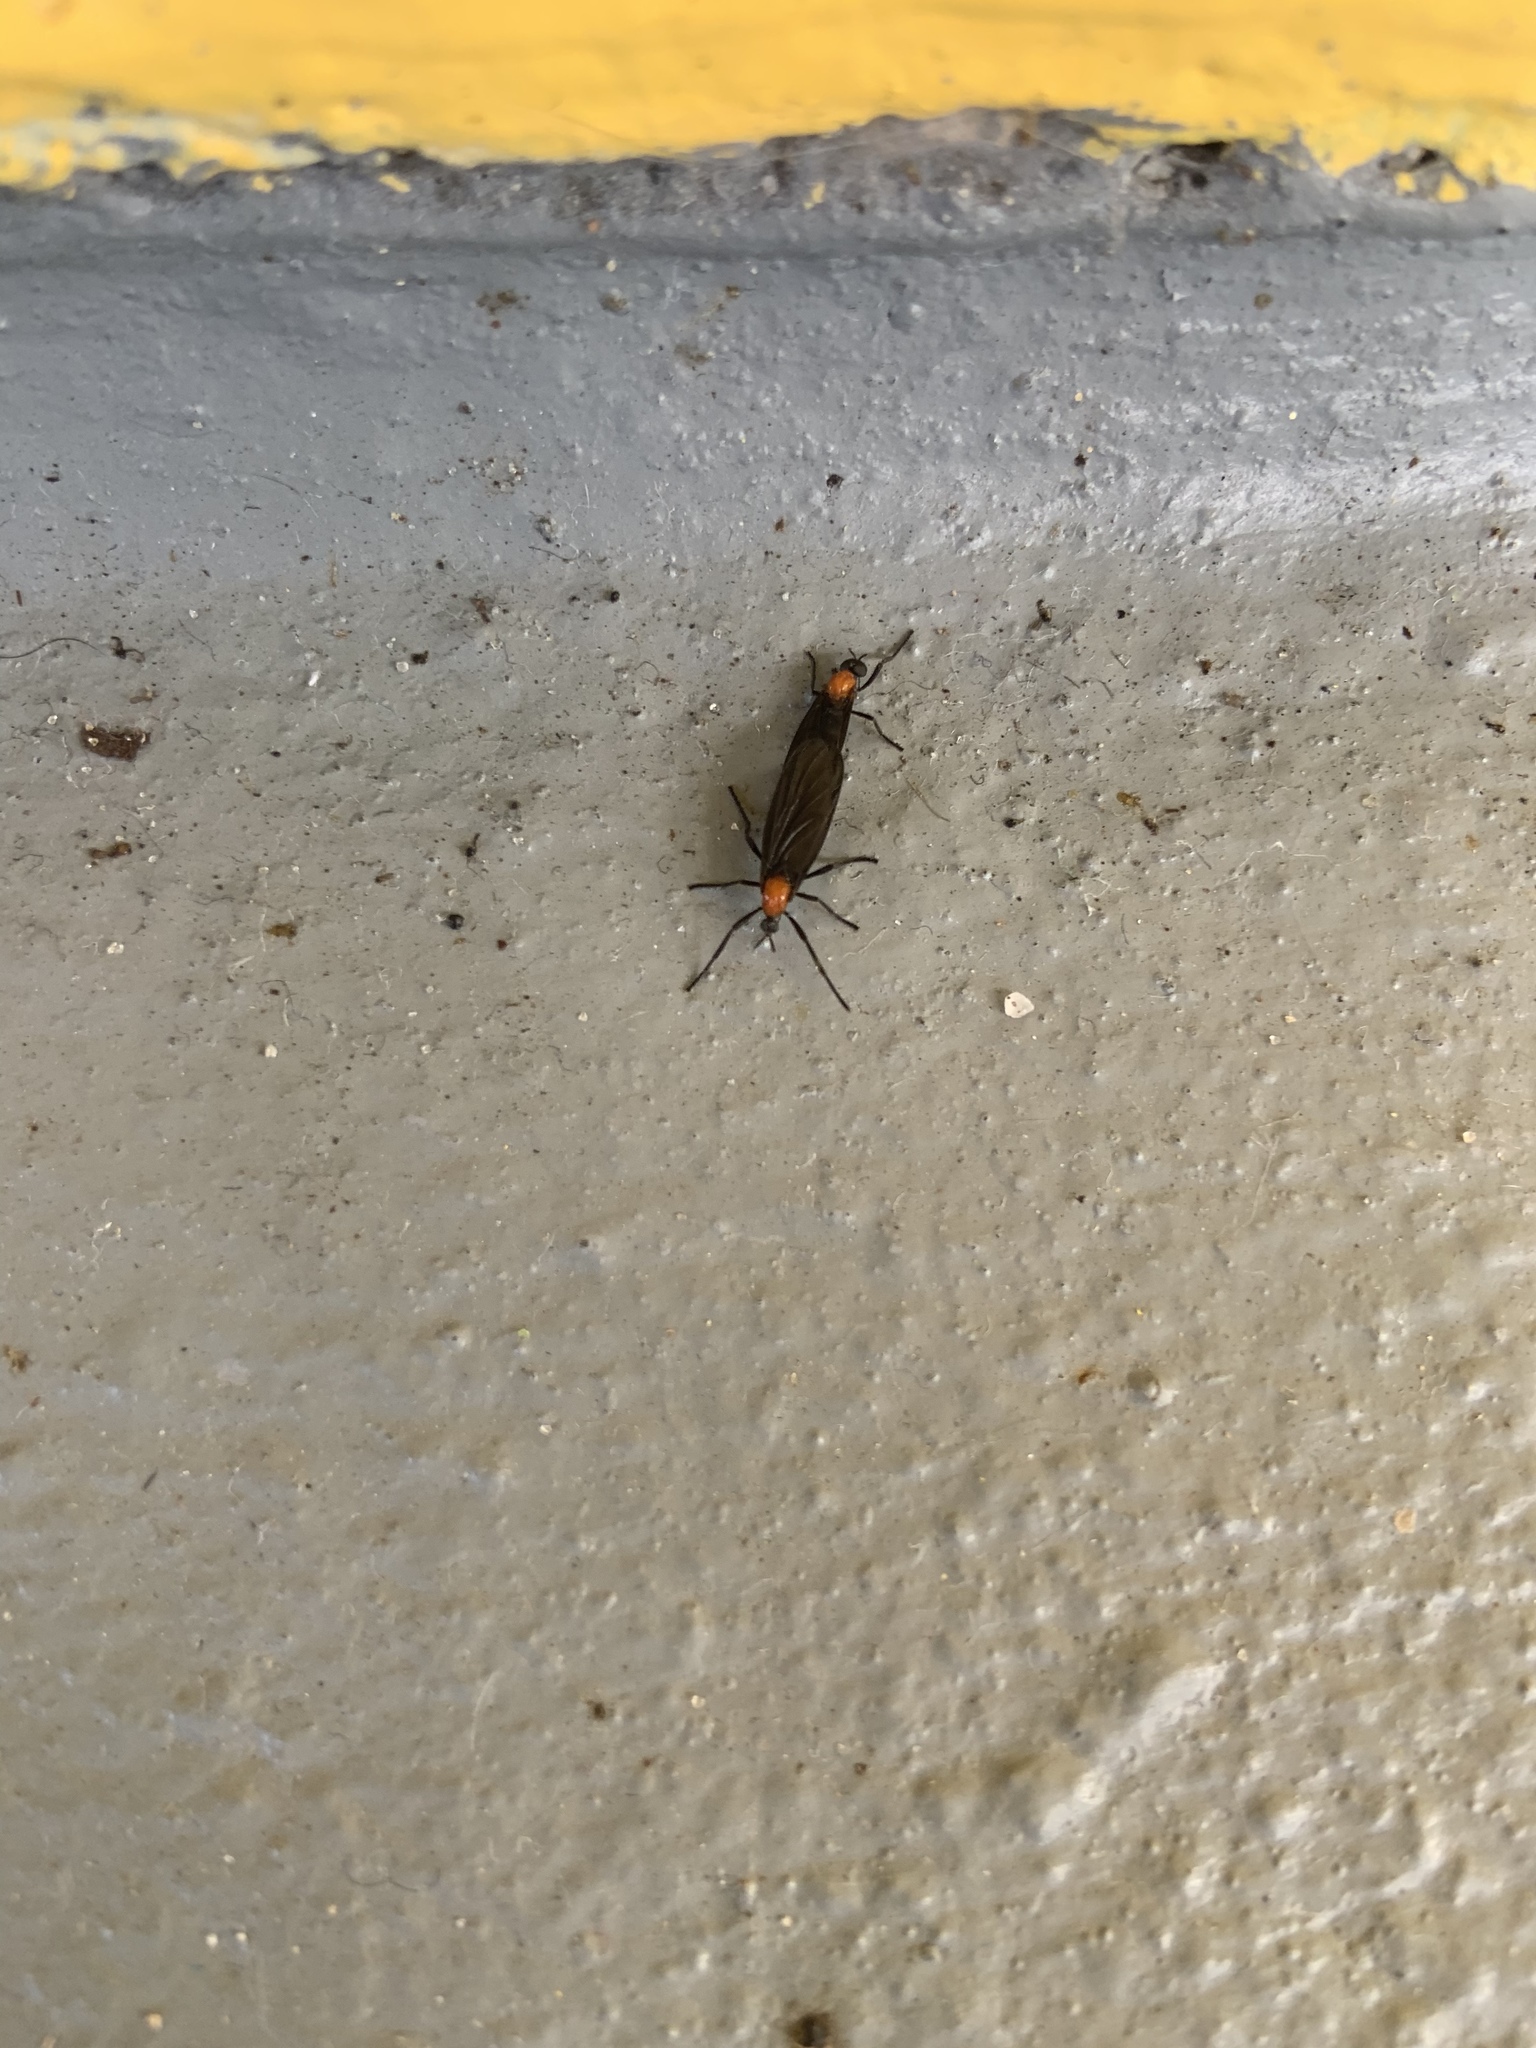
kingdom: Animalia
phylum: Arthropoda
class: Insecta
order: Diptera
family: Bibionidae
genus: Plecia
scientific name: Plecia nearctica
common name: March fly
